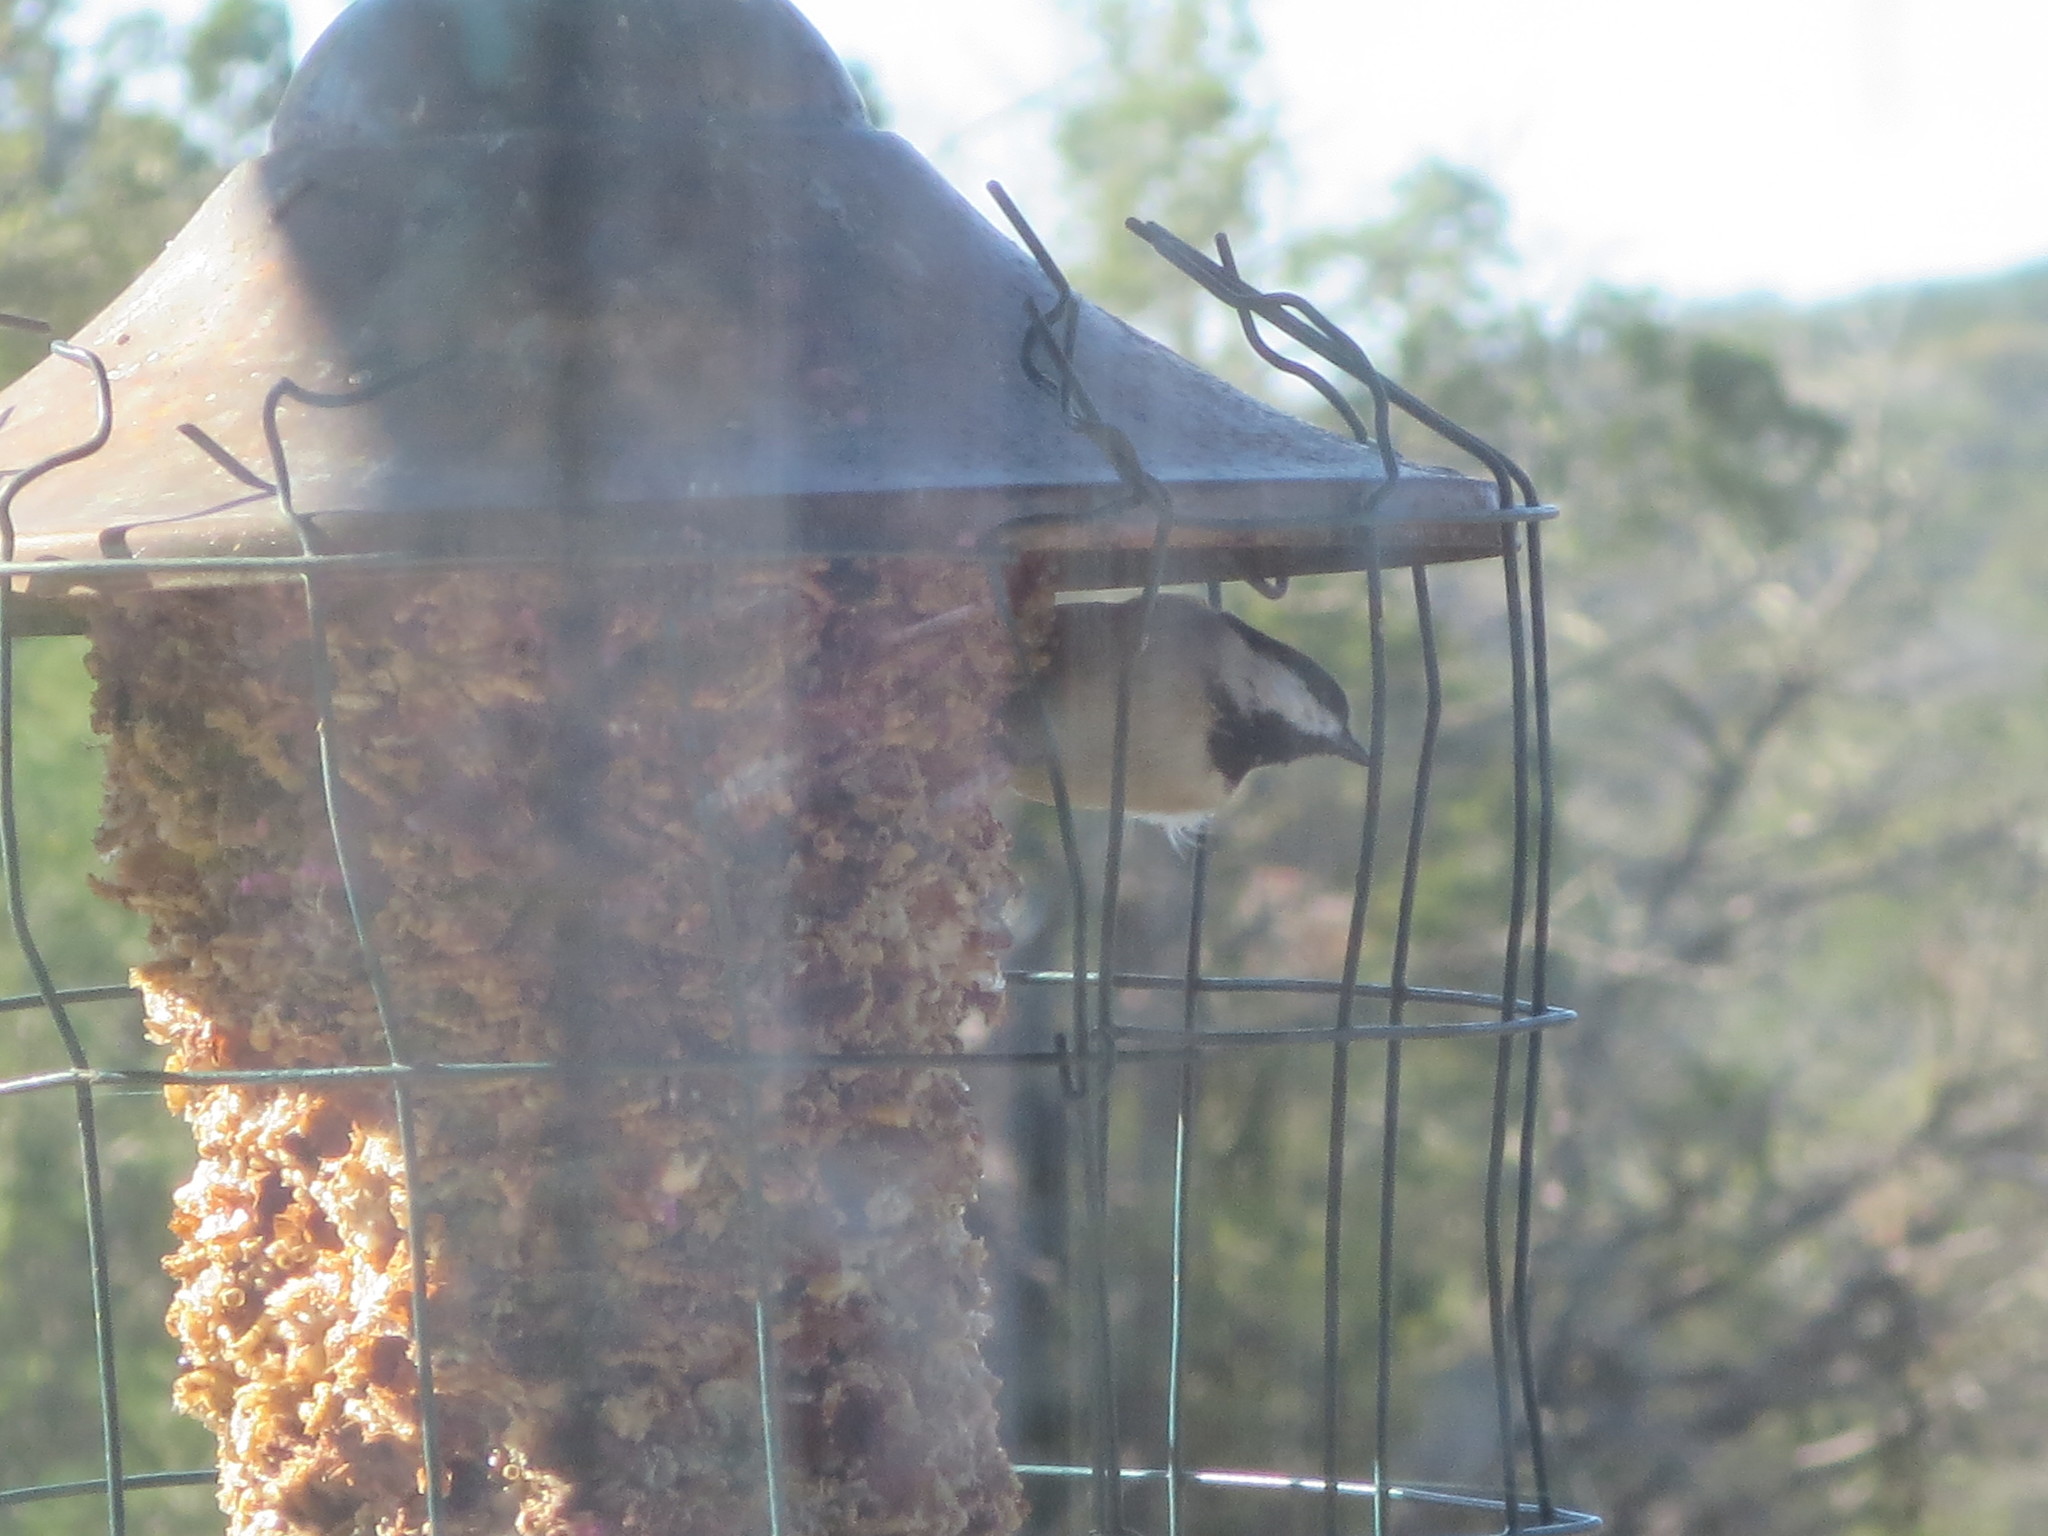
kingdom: Animalia
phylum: Chordata
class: Aves
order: Passeriformes
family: Paridae
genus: Poecile
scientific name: Poecile carolinensis
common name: Carolina chickadee
